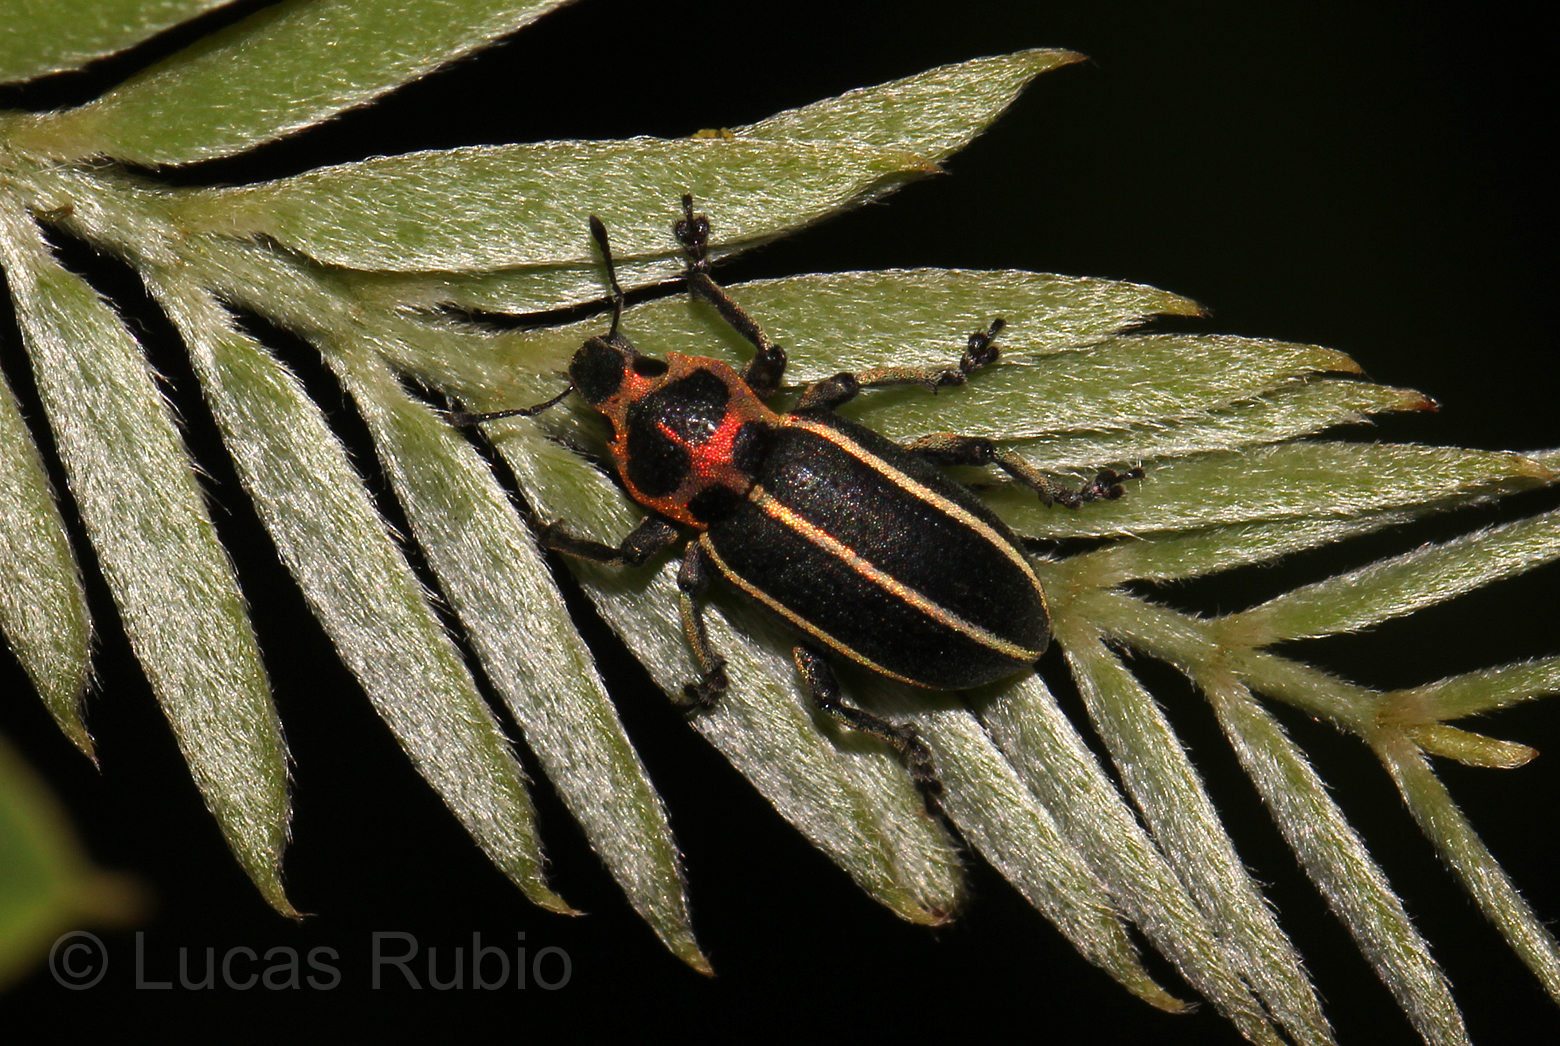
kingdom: Animalia
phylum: Arthropoda
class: Insecta
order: Coleoptera
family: Curculionidae
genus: Eudiagogus
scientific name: Eudiagogus episcopalis
